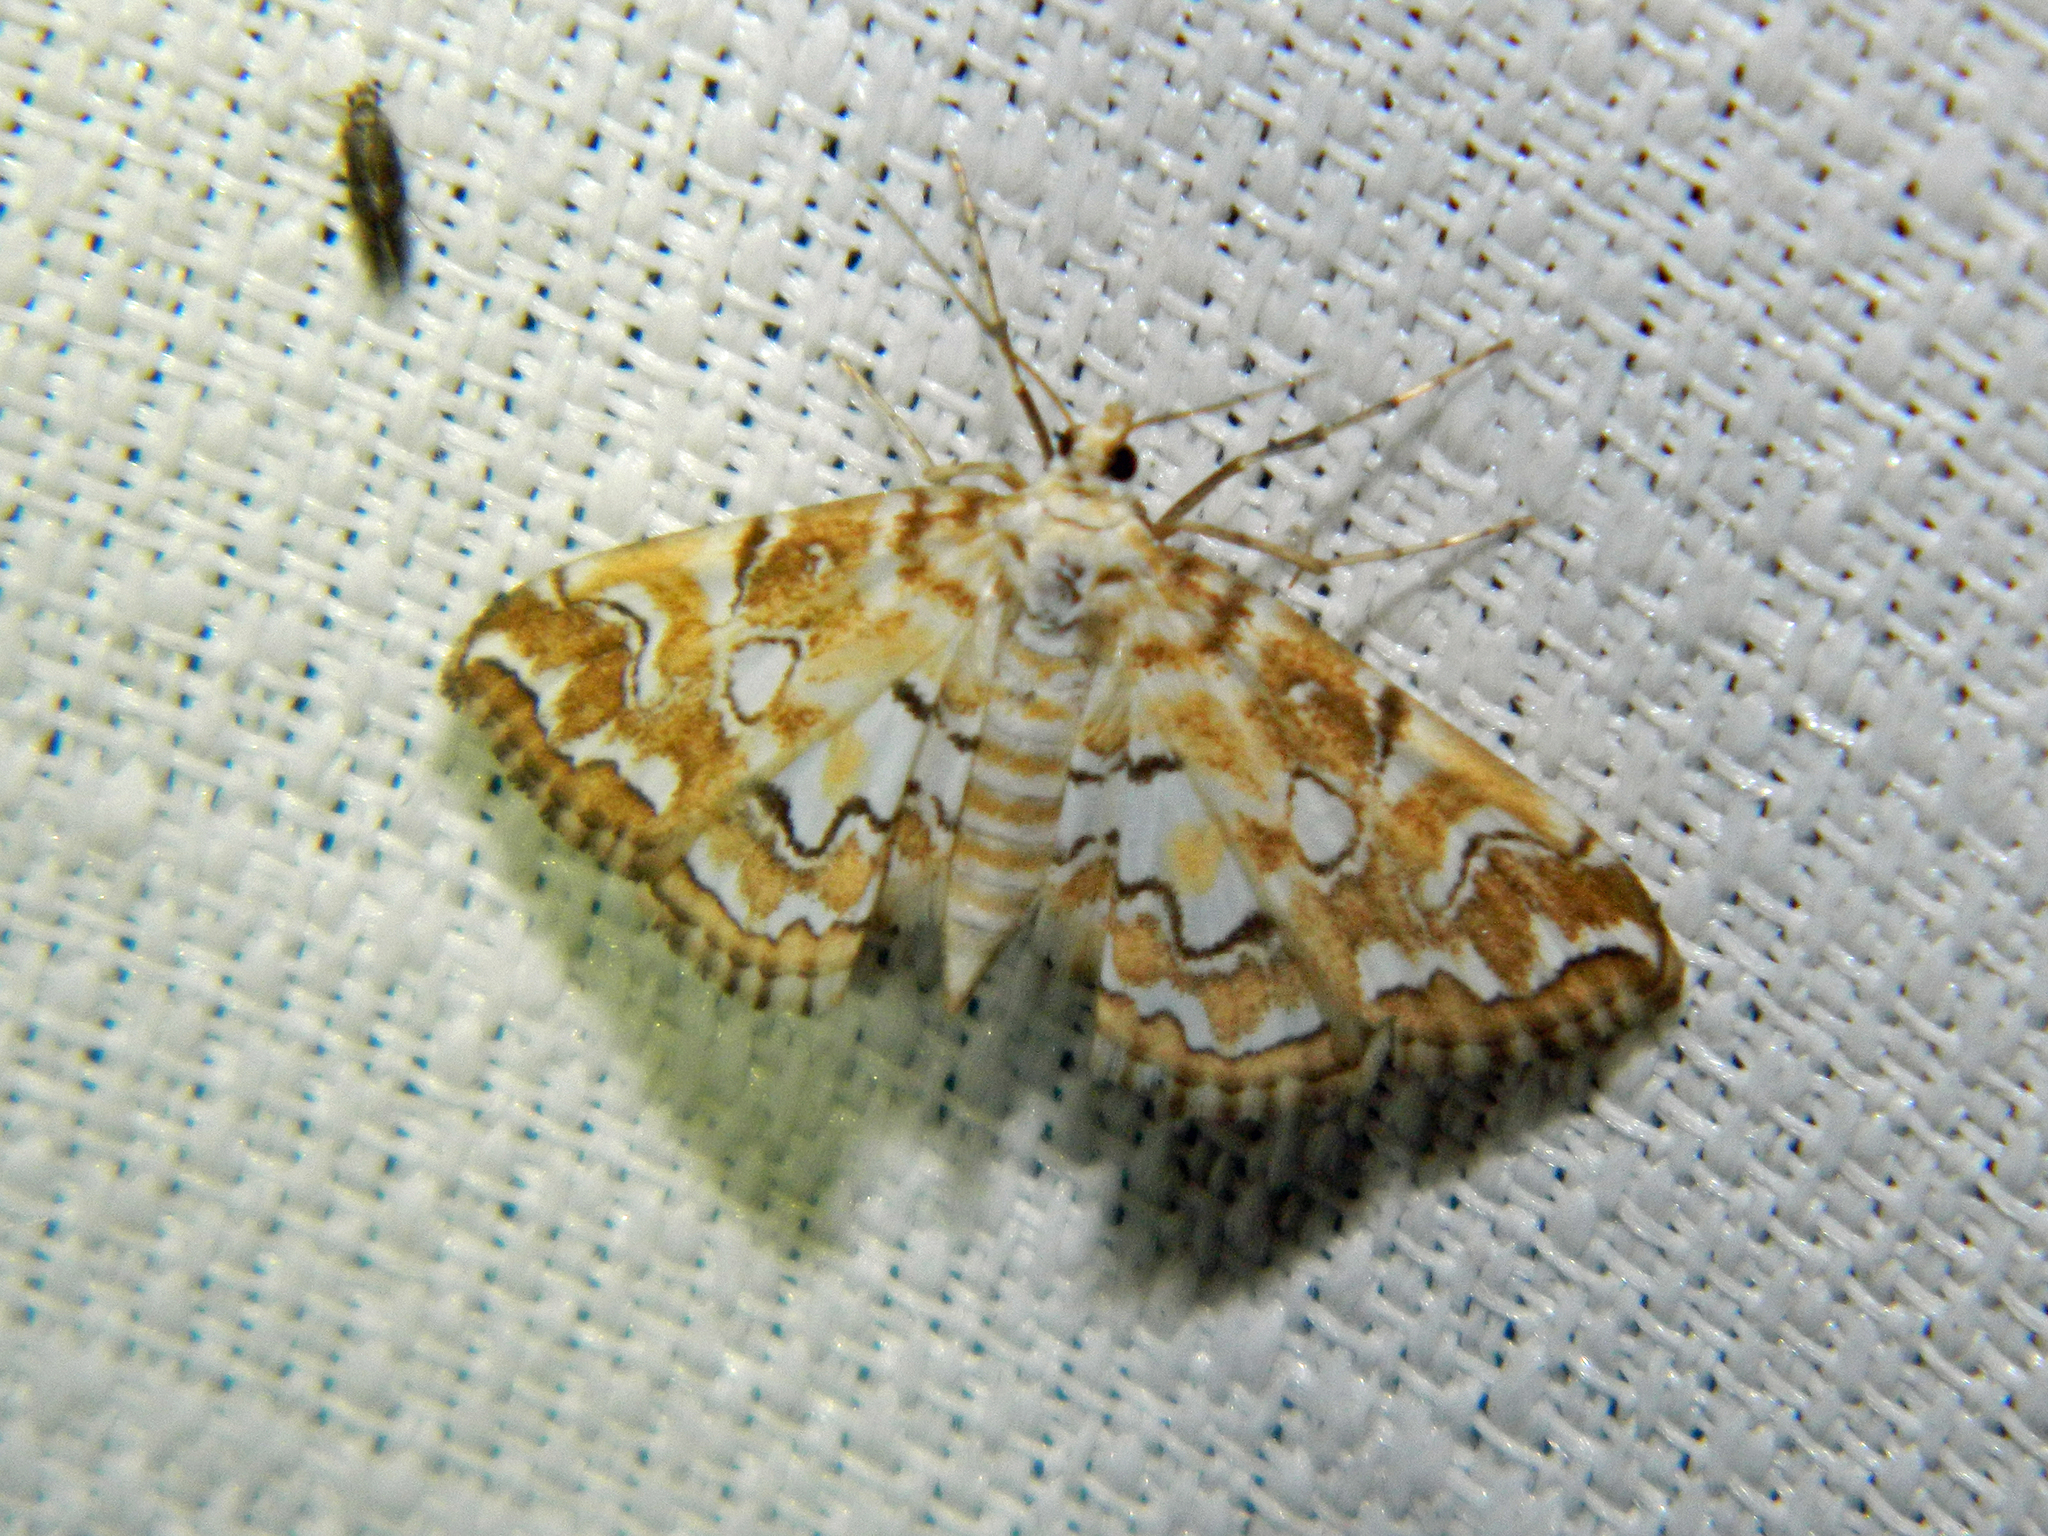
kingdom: Animalia
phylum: Arthropoda
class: Insecta
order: Lepidoptera
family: Crambidae
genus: Elophila
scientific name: Elophila icciusalis
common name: Pondside pyralid moth
